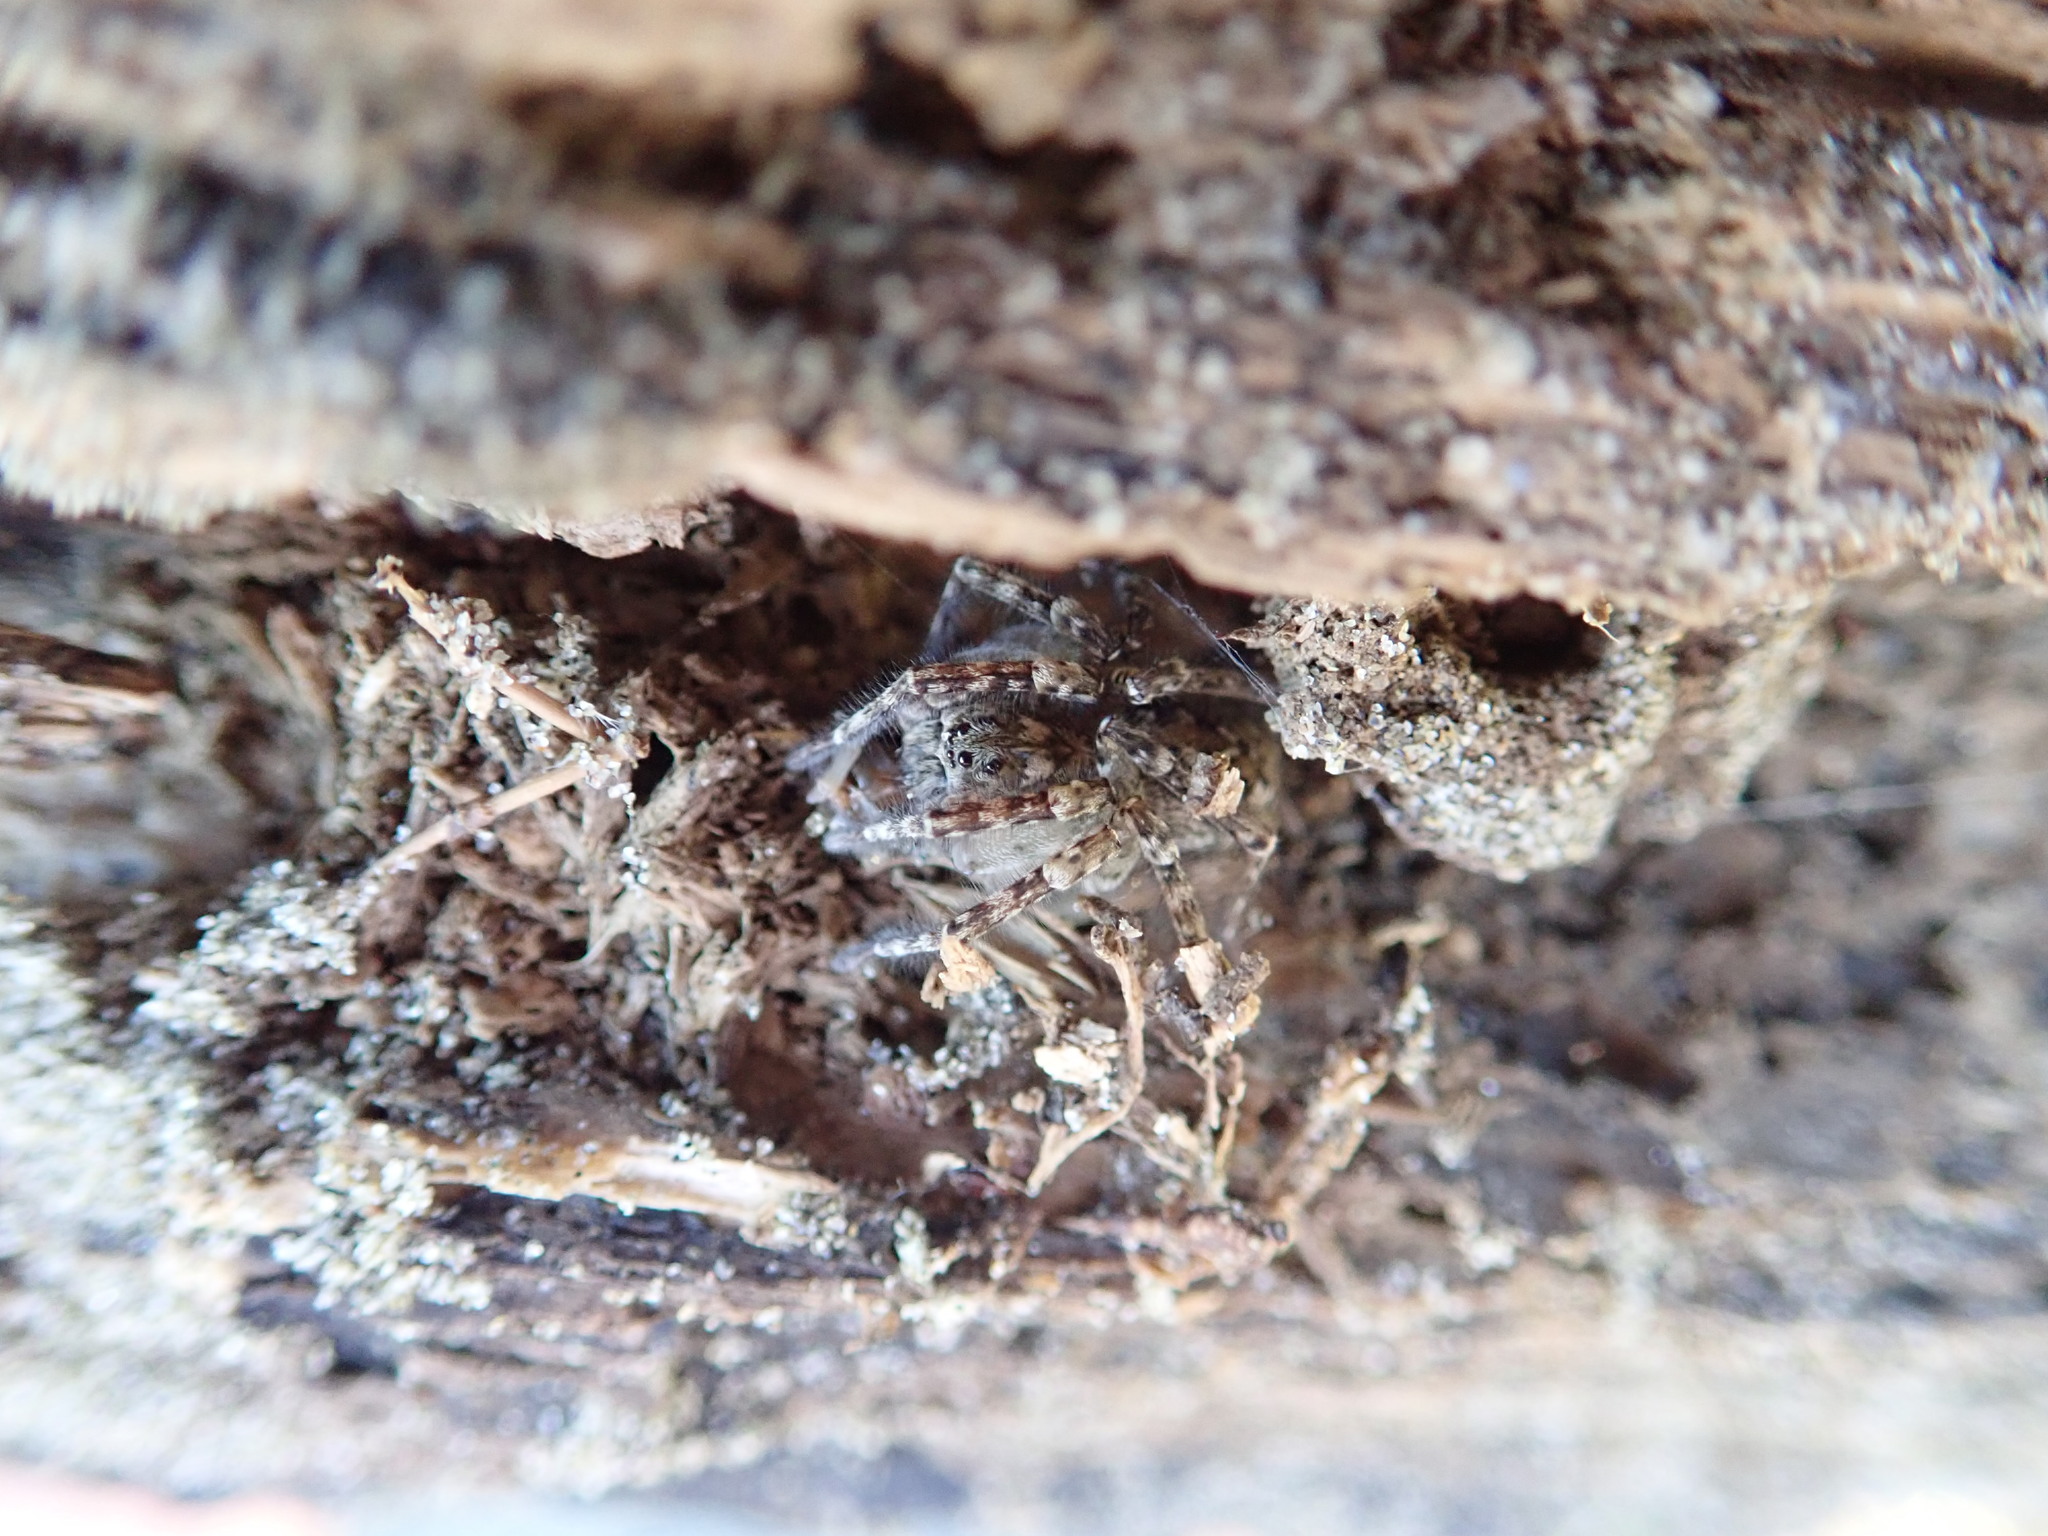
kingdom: Animalia
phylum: Arthropoda
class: Arachnida
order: Araneae
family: Lycosidae
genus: Anoteropsis
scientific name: Anoteropsis litoralis
